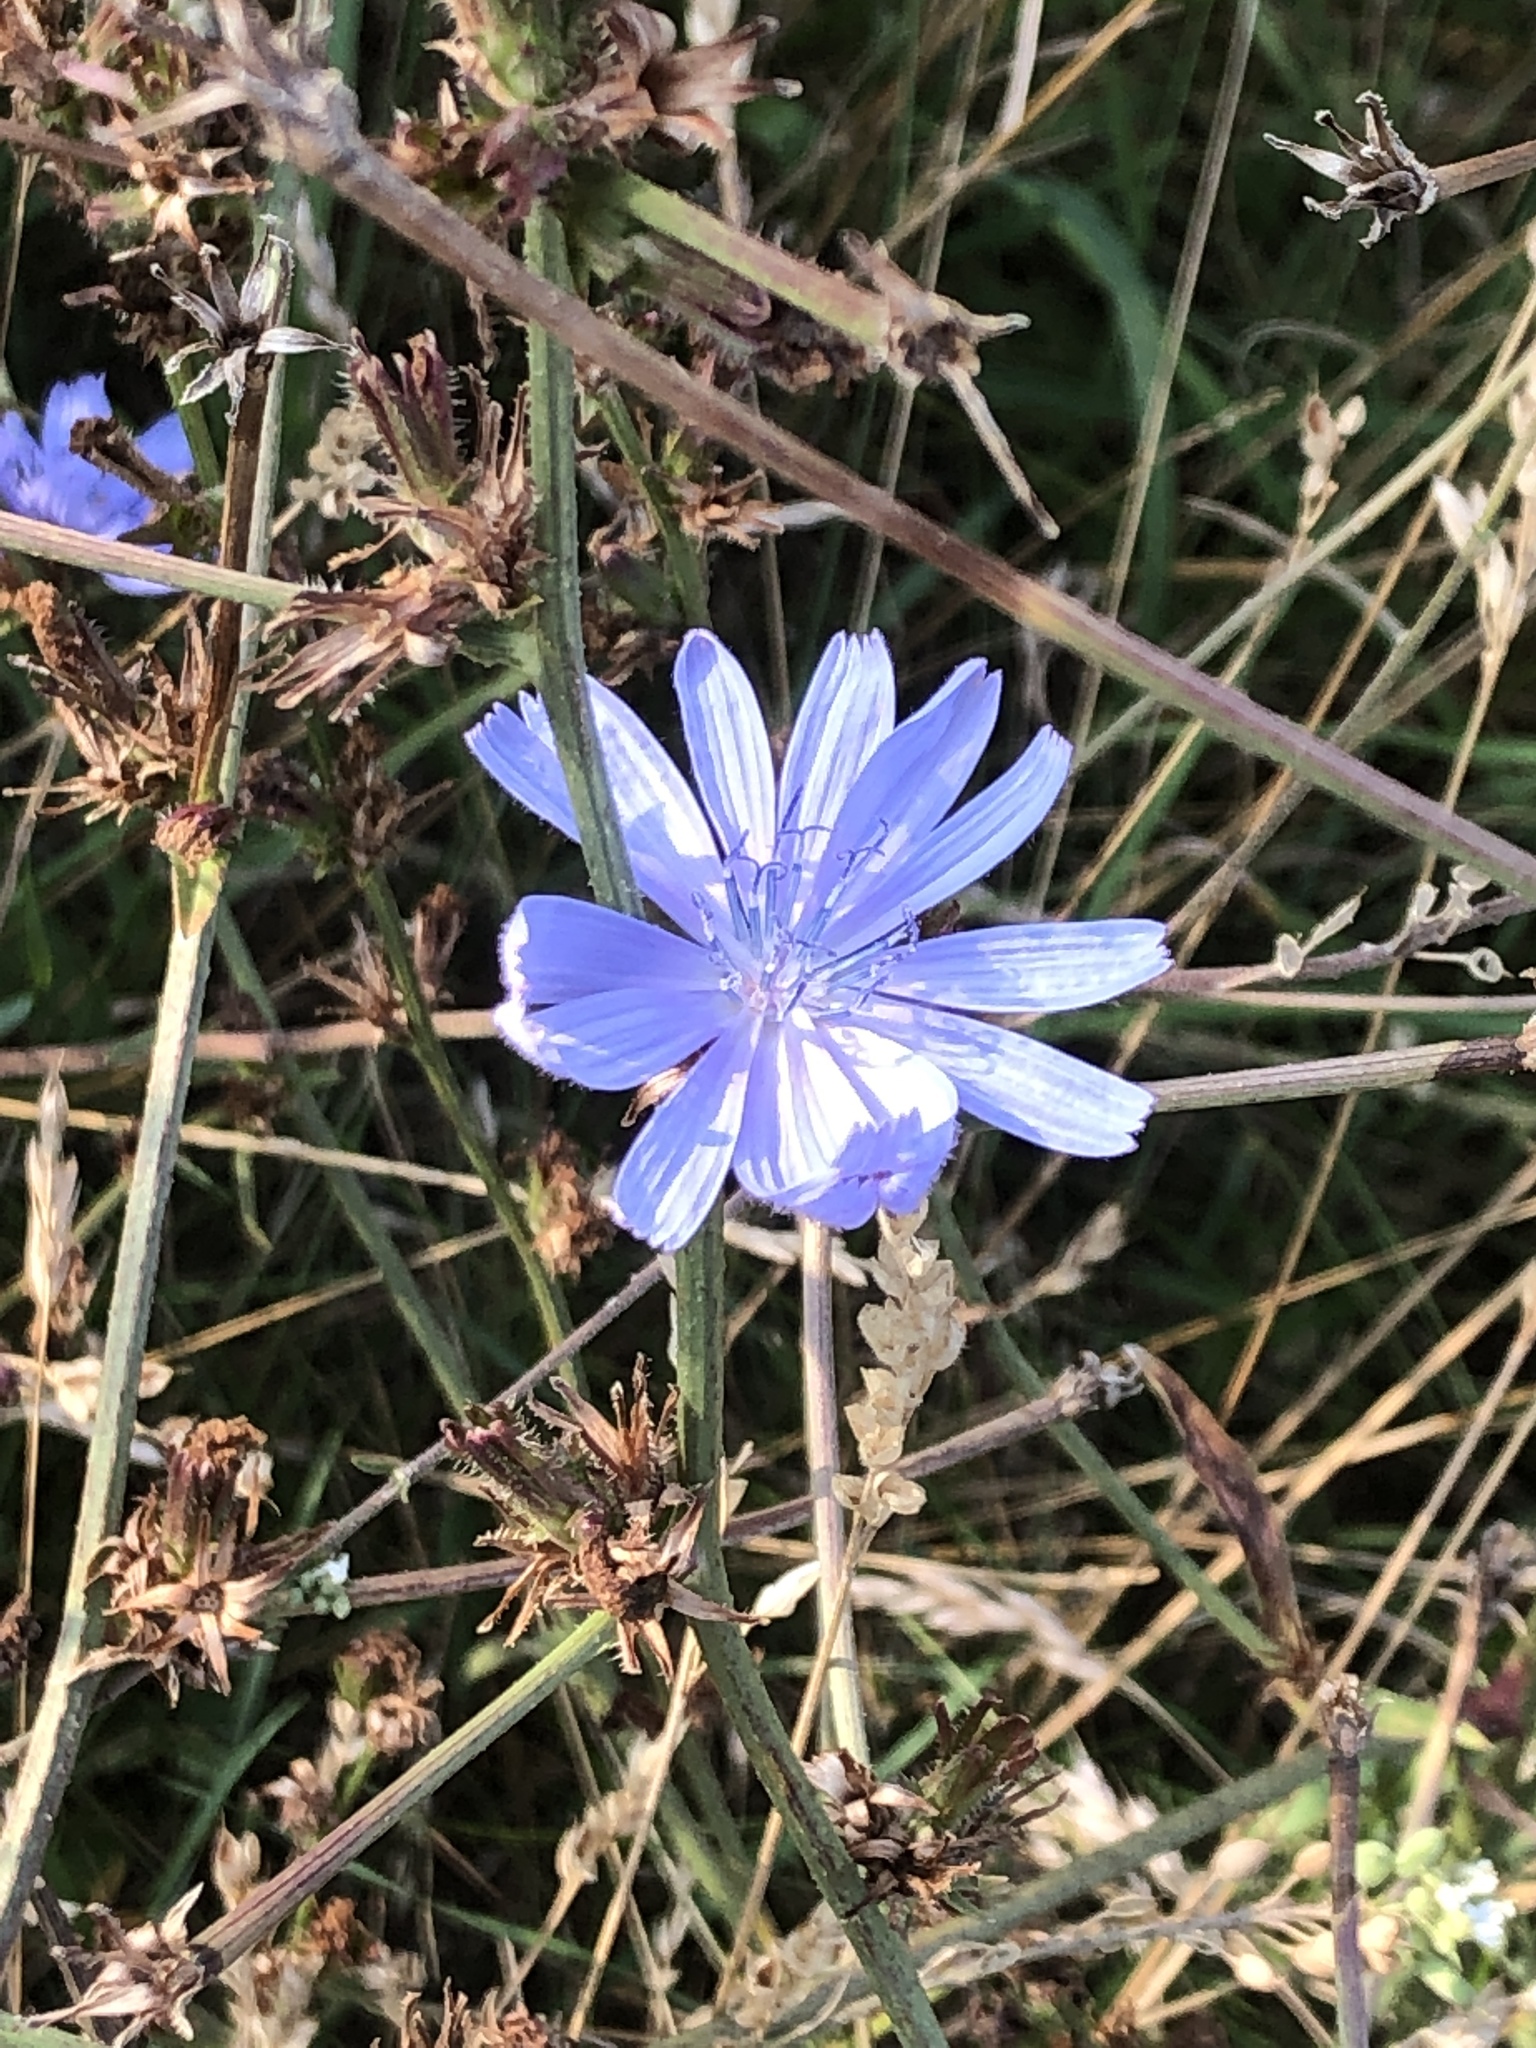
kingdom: Plantae
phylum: Tracheophyta
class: Magnoliopsida
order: Asterales
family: Asteraceae
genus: Cichorium
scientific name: Cichorium intybus
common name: Chicory
